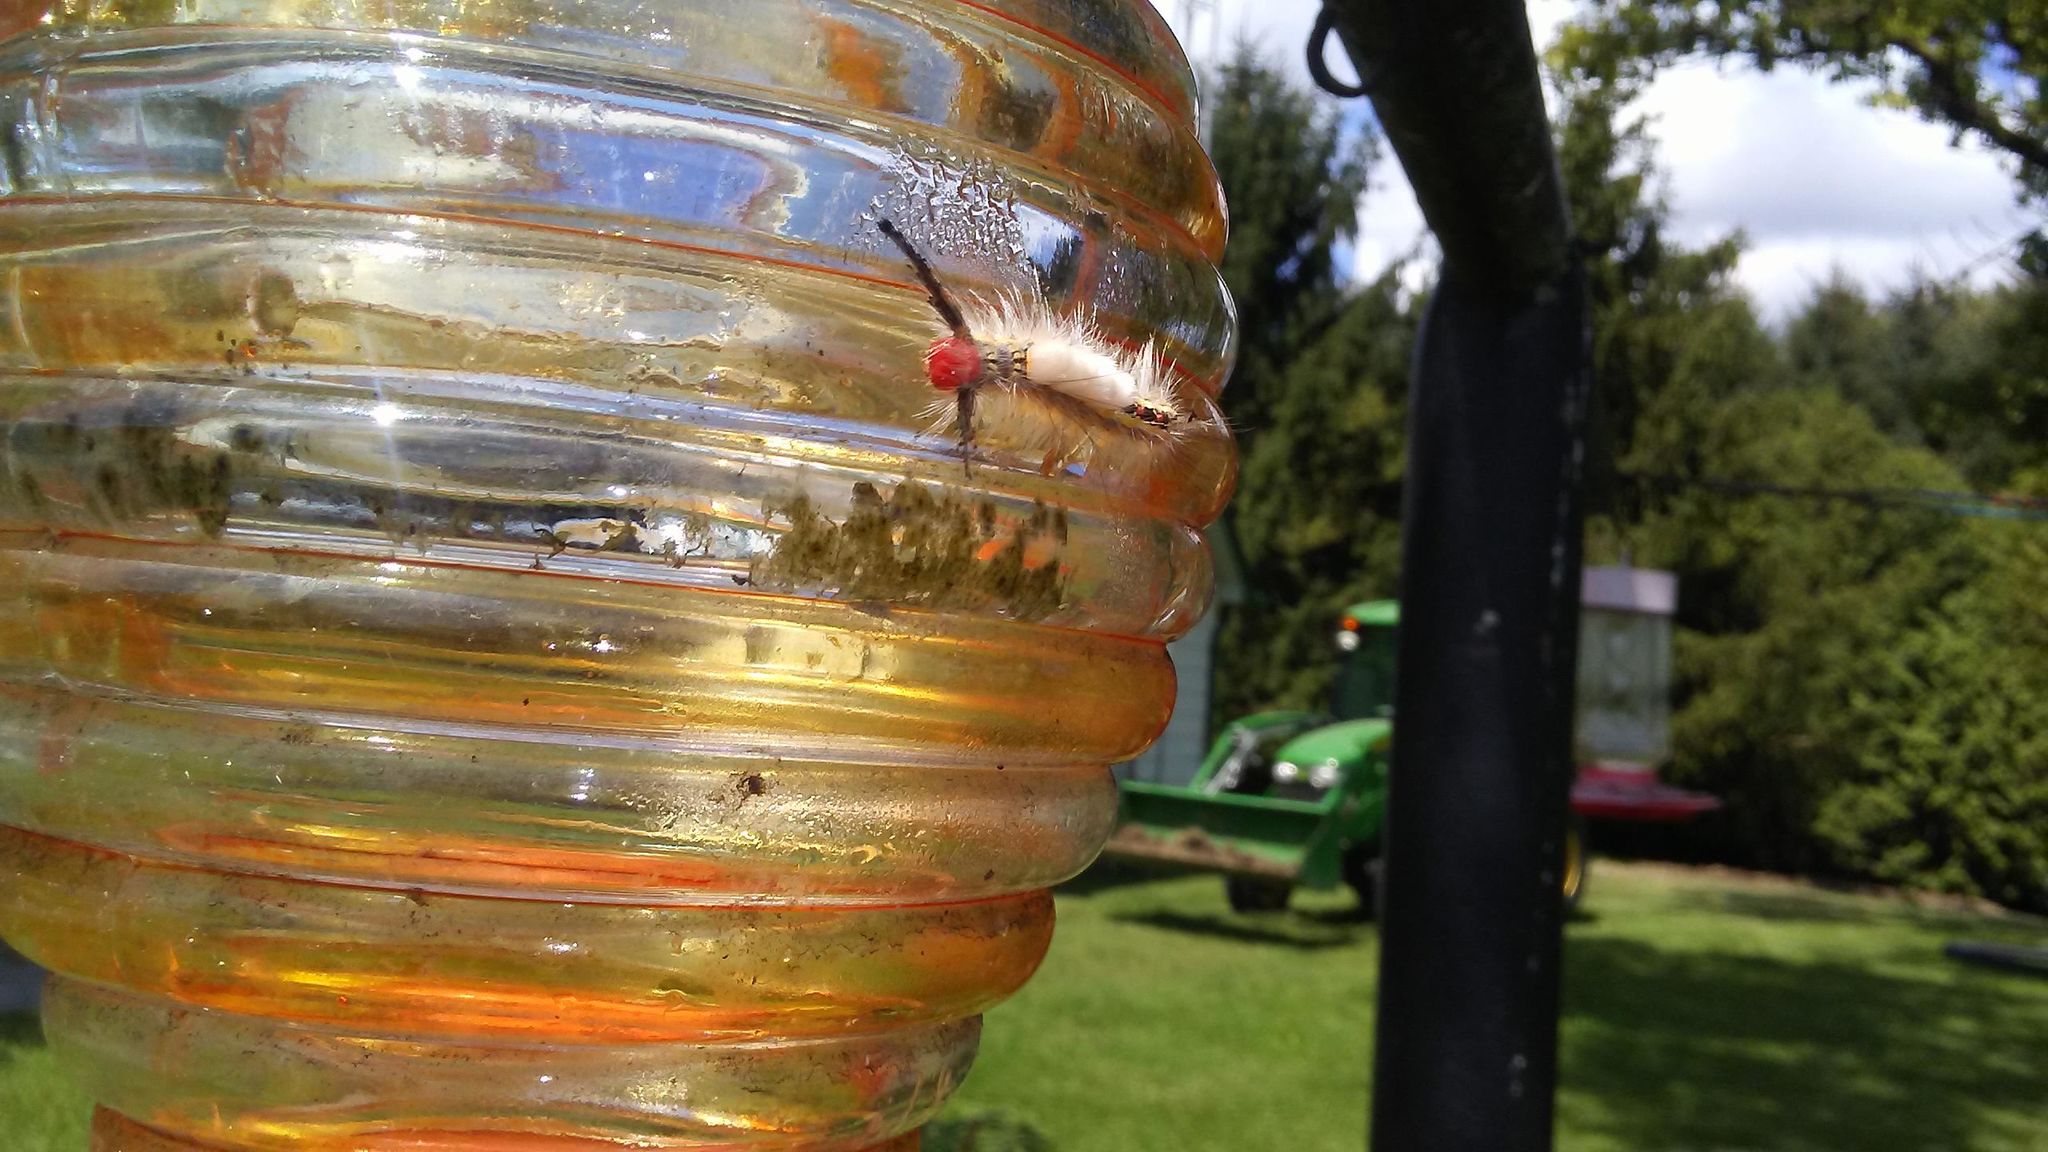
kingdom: Animalia
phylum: Arthropoda
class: Insecta
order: Lepidoptera
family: Erebidae
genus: Orgyia
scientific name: Orgyia leucostigma
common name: White-marked tussock moth
